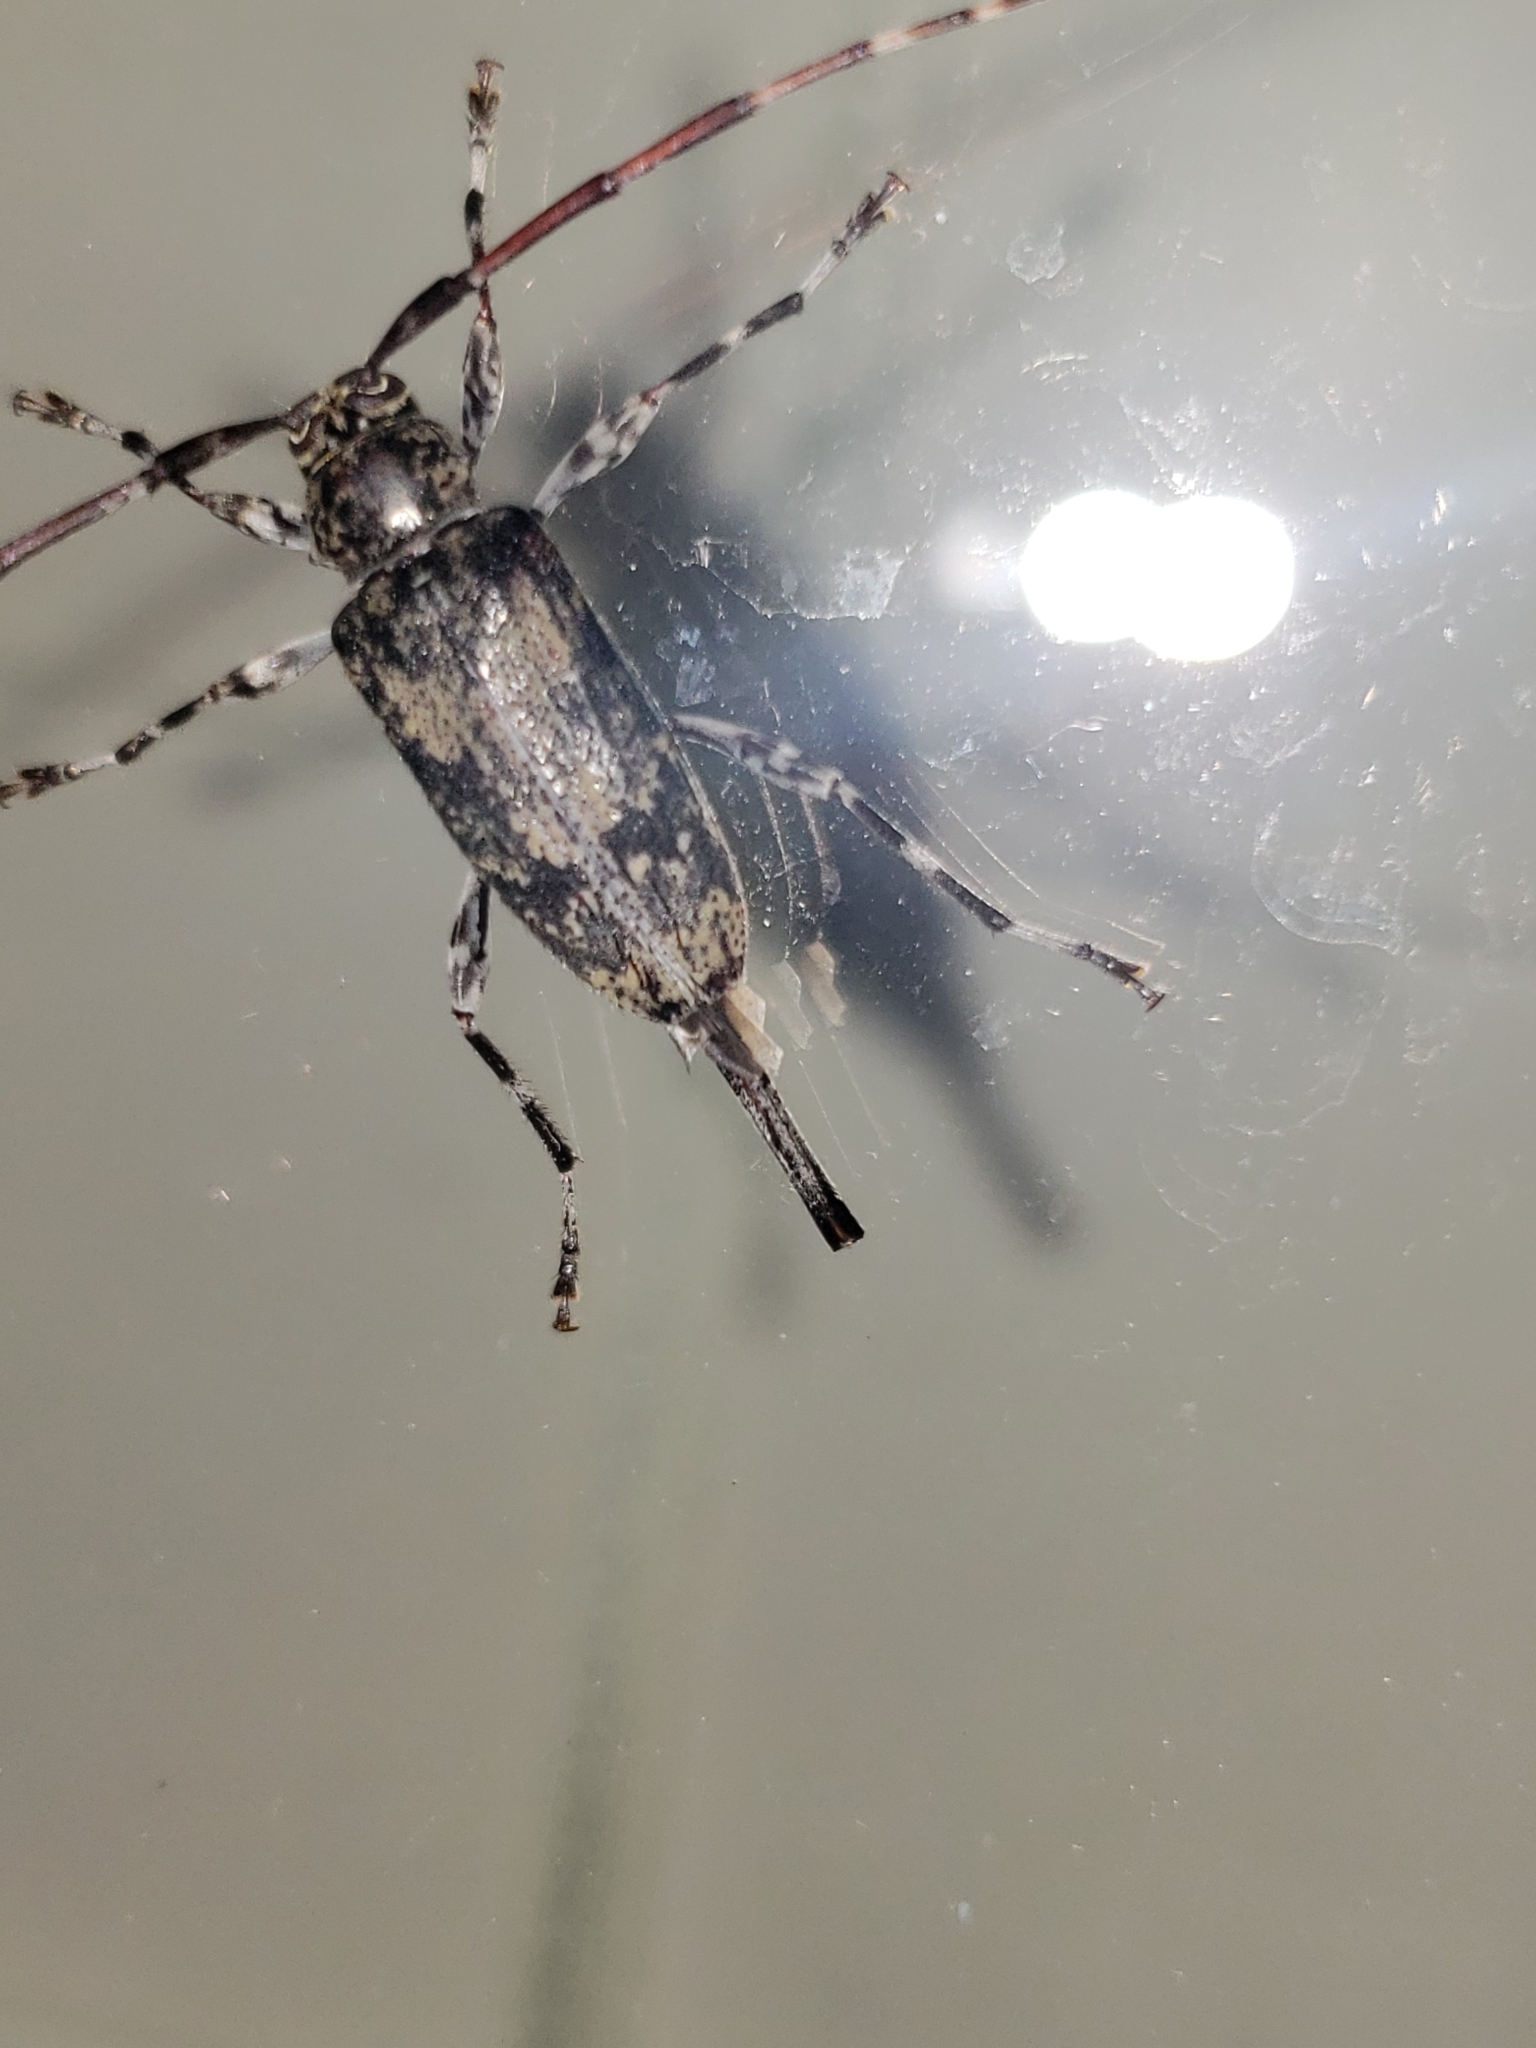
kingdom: Animalia
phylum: Arthropoda
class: Insecta
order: Coleoptera
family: Cerambycidae
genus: Graphisurus
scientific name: Graphisurus fasciatus
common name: Banded graphisurus
